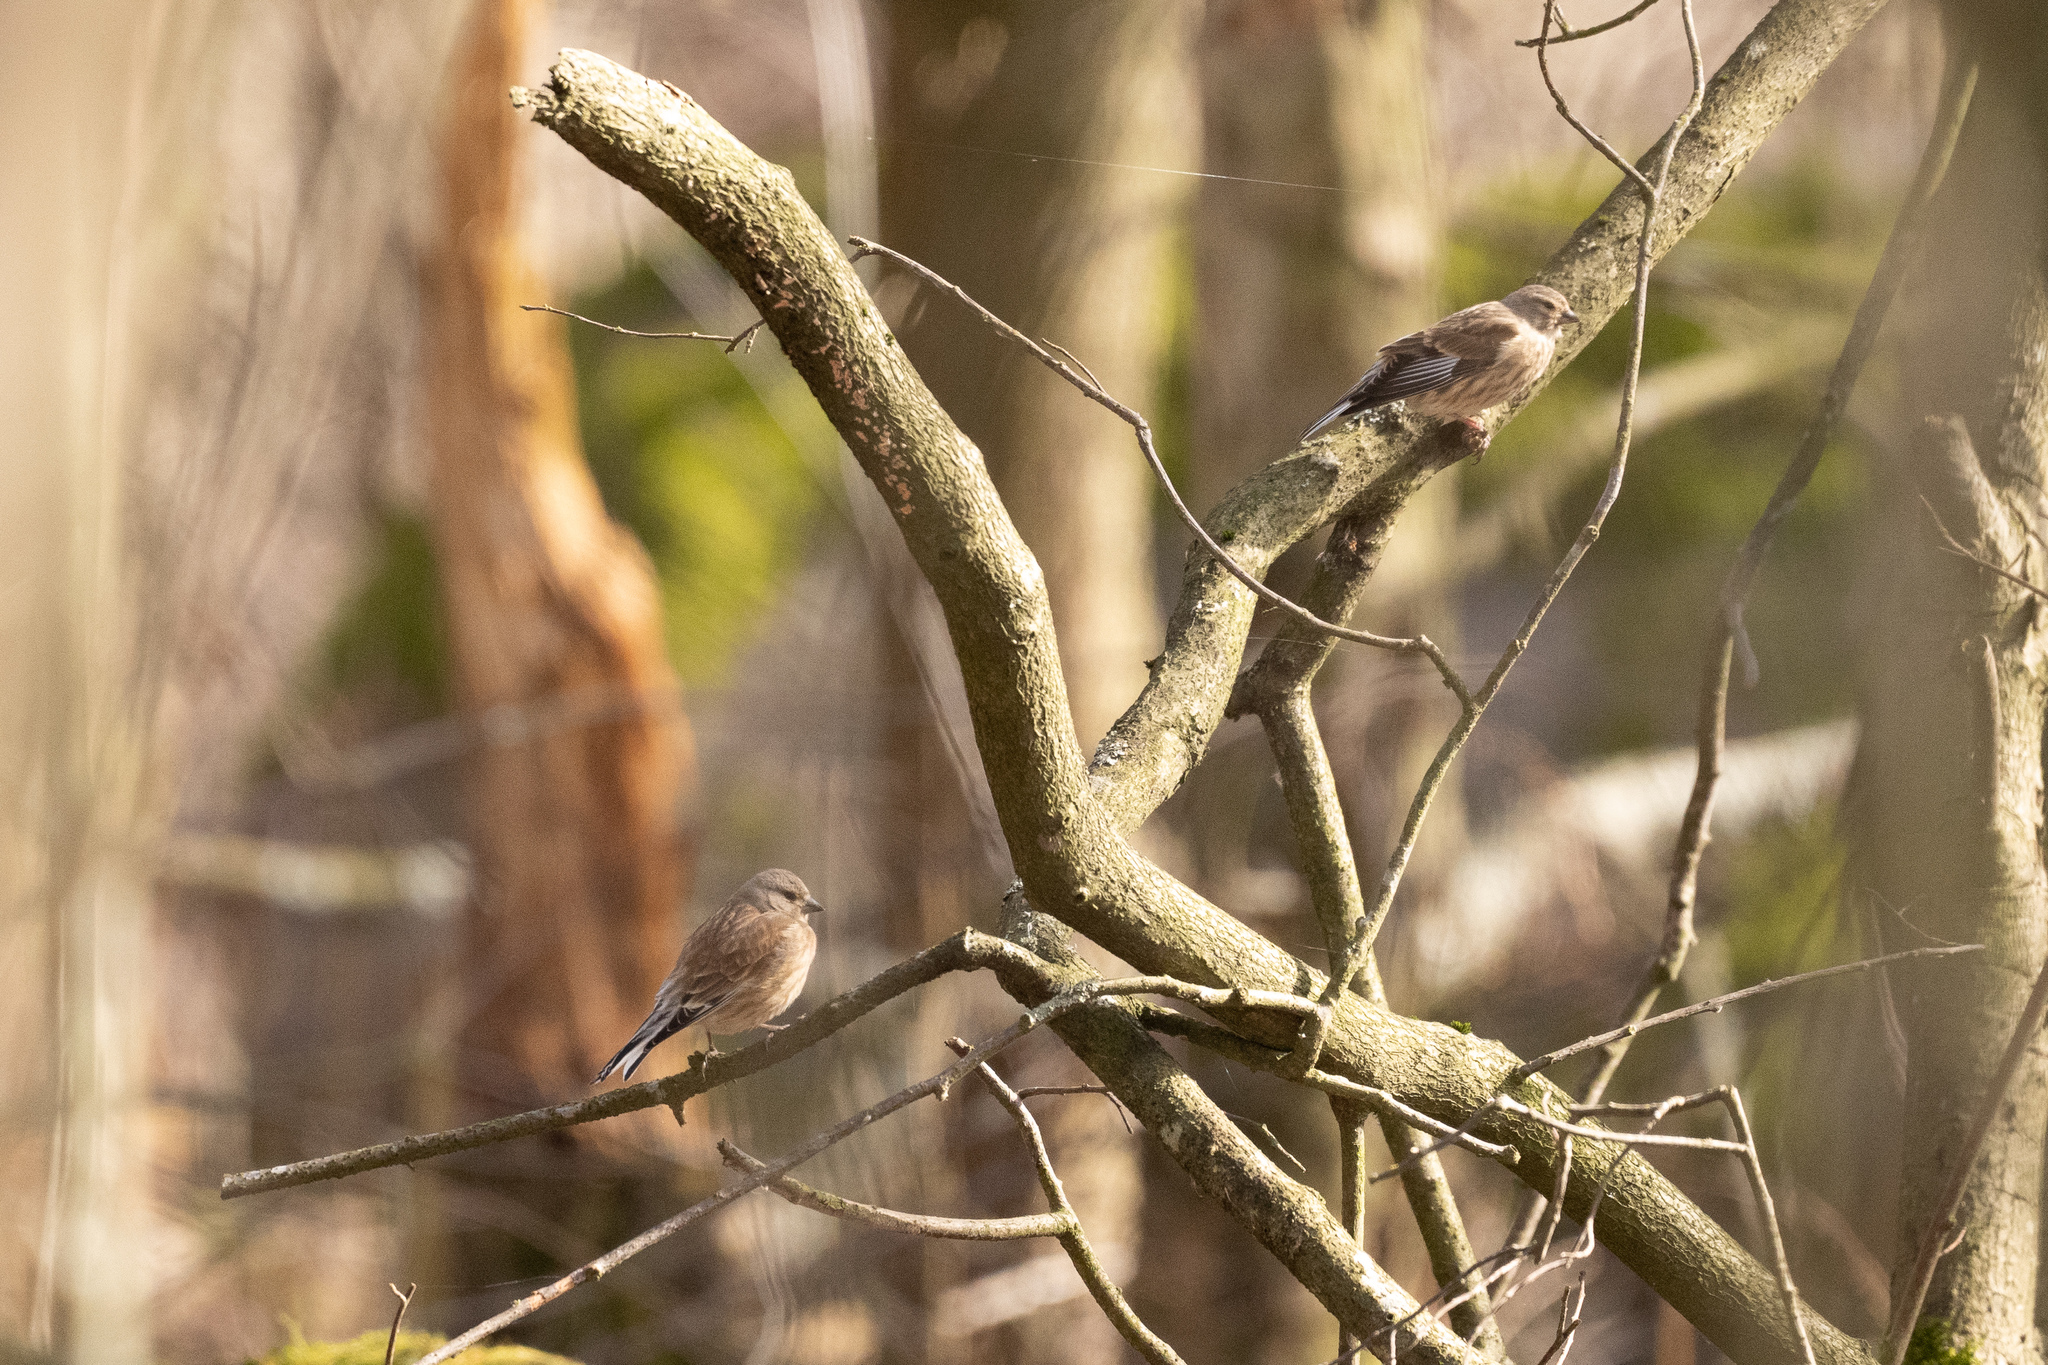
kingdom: Animalia
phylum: Chordata
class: Aves
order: Passeriformes
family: Fringillidae
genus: Linaria
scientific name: Linaria cannabina
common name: Common linnet
